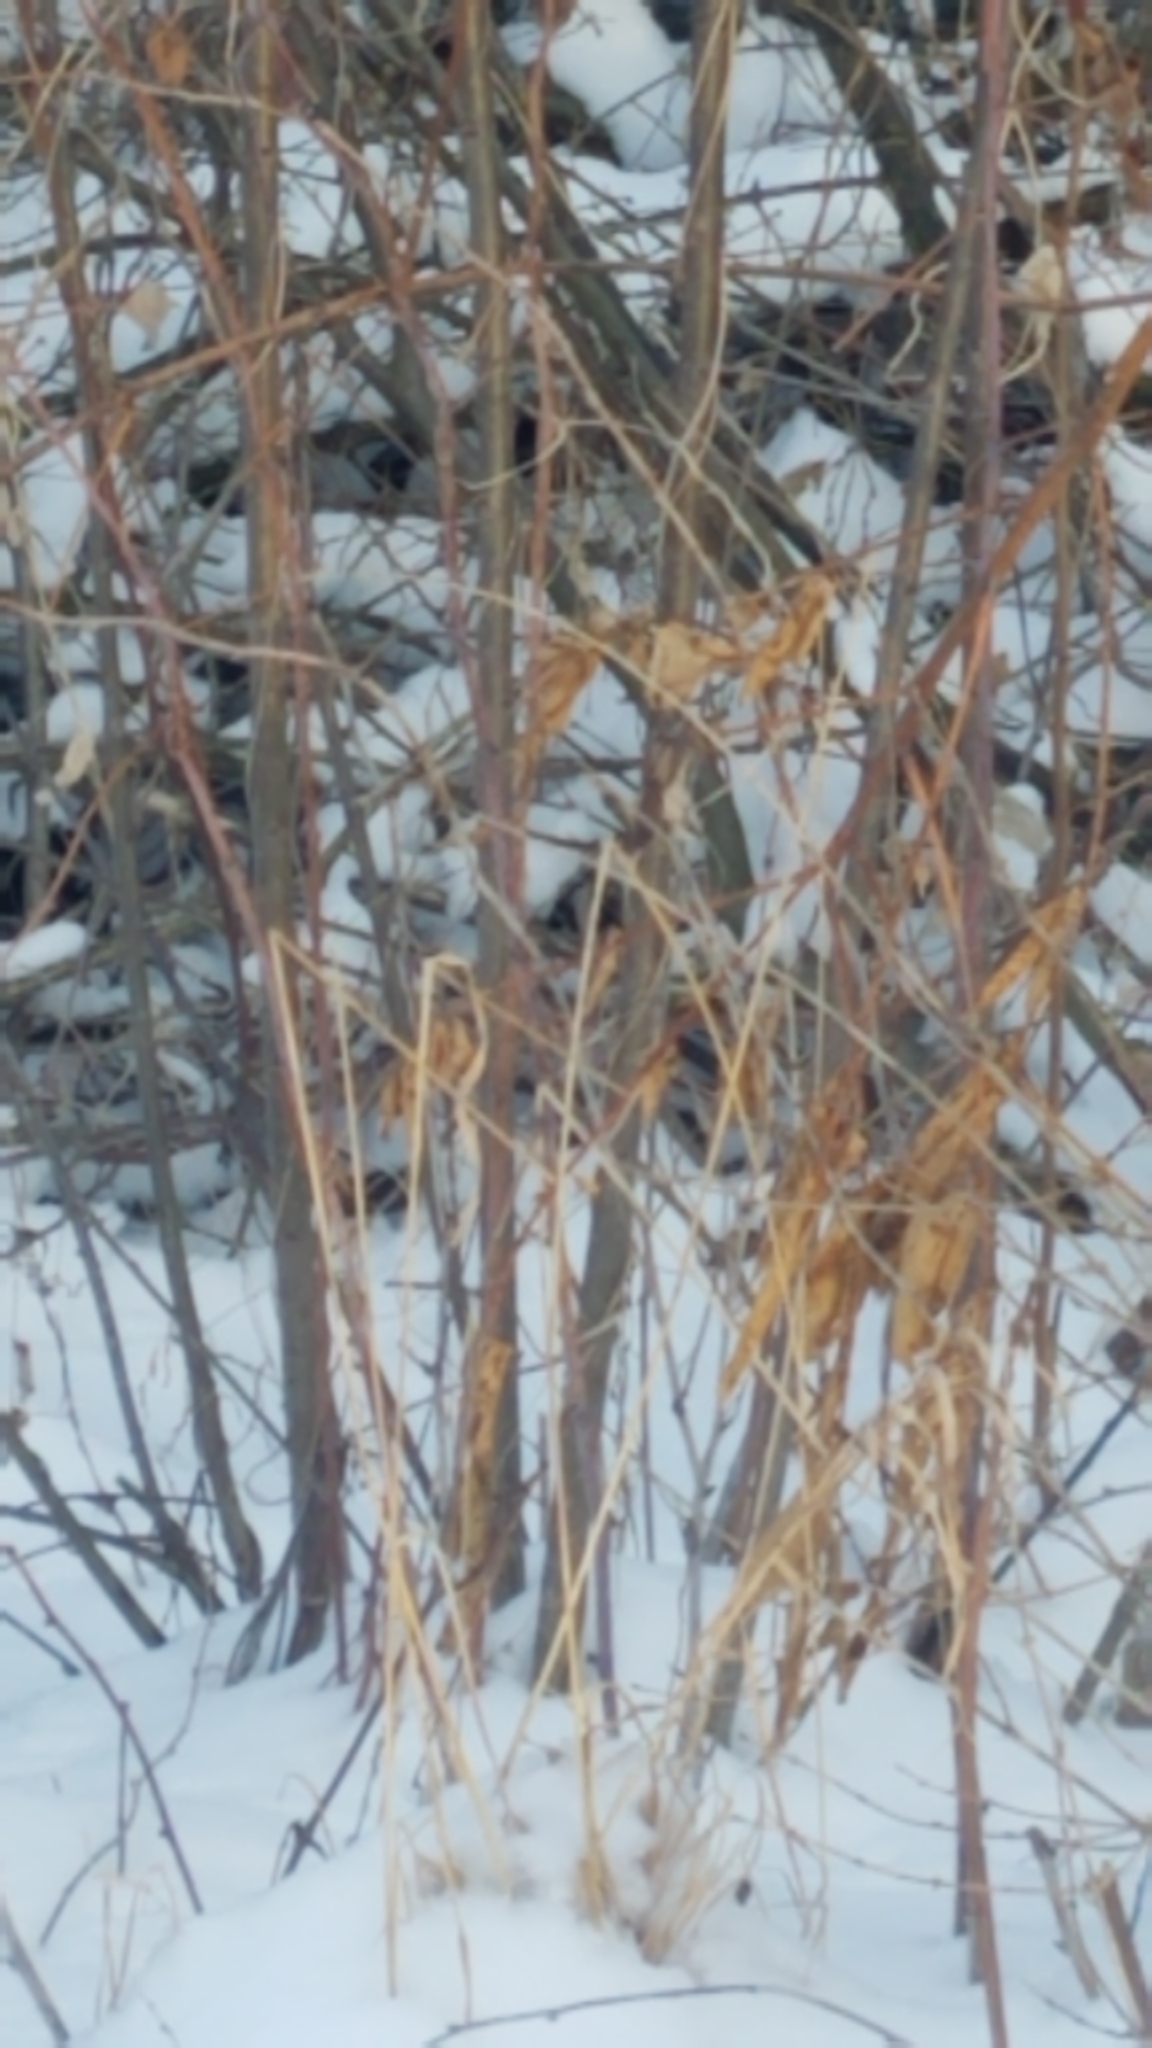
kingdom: Animalia
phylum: Chordata
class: Mammalia
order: Carnivora
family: Mustelidae
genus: Mustela
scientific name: Mustela
